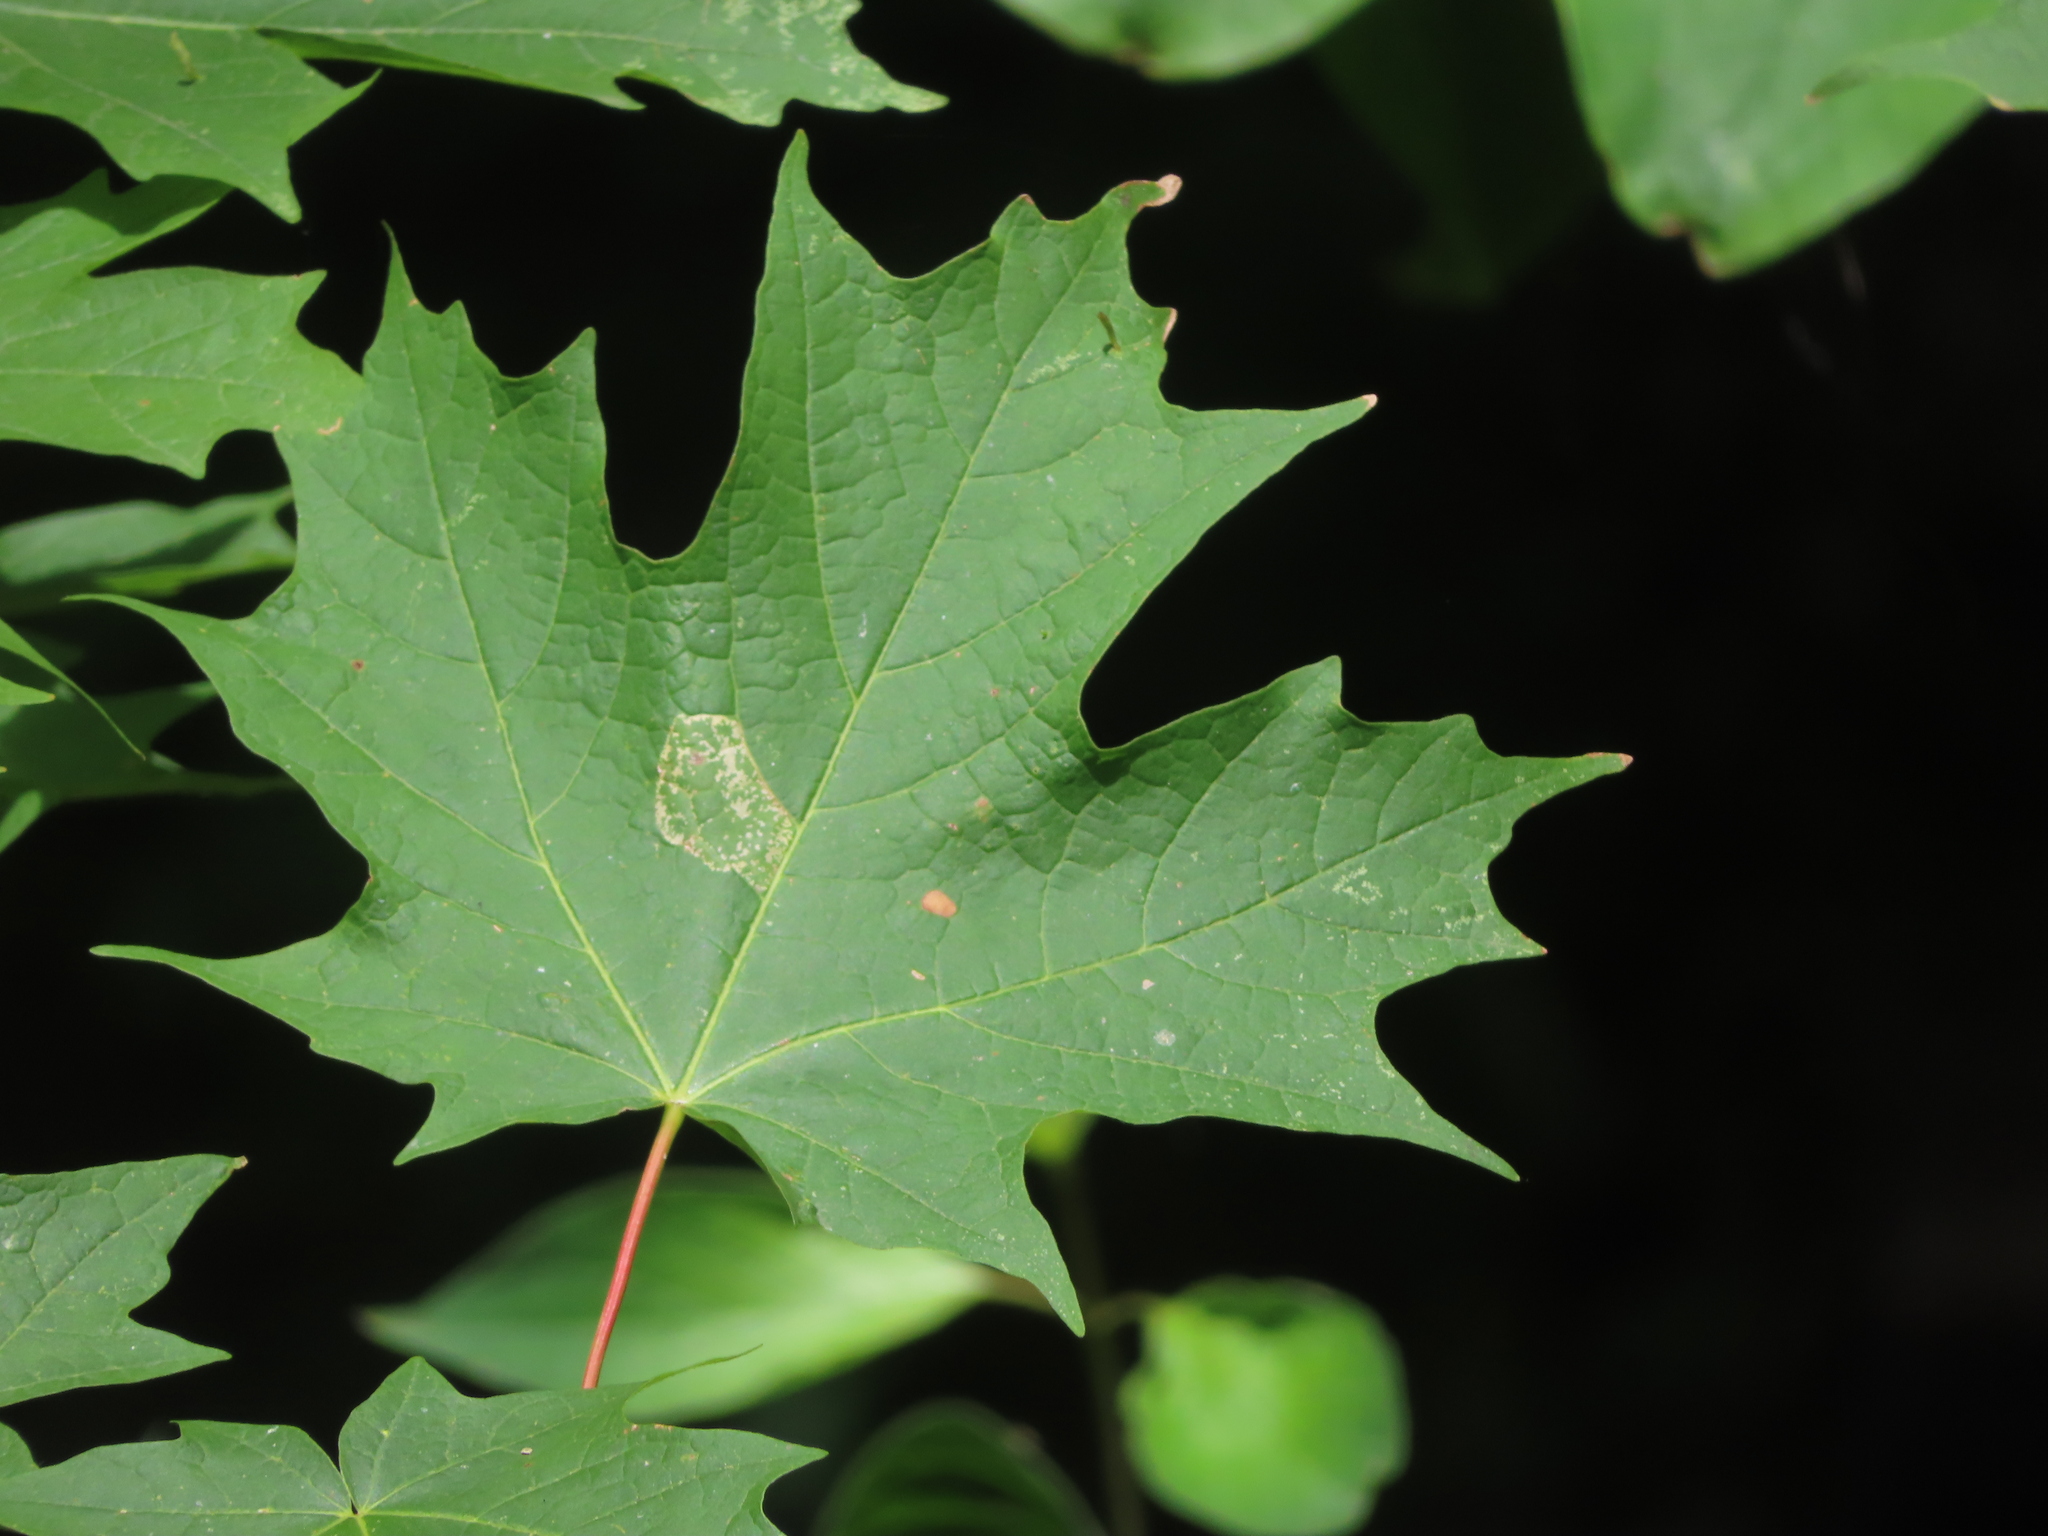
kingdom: Plantae
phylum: Tracheophyta
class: Magnoliopsida
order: Sapindales
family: Sapindaceae
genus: Acer
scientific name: Acer saccharum
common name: Sugar maple
